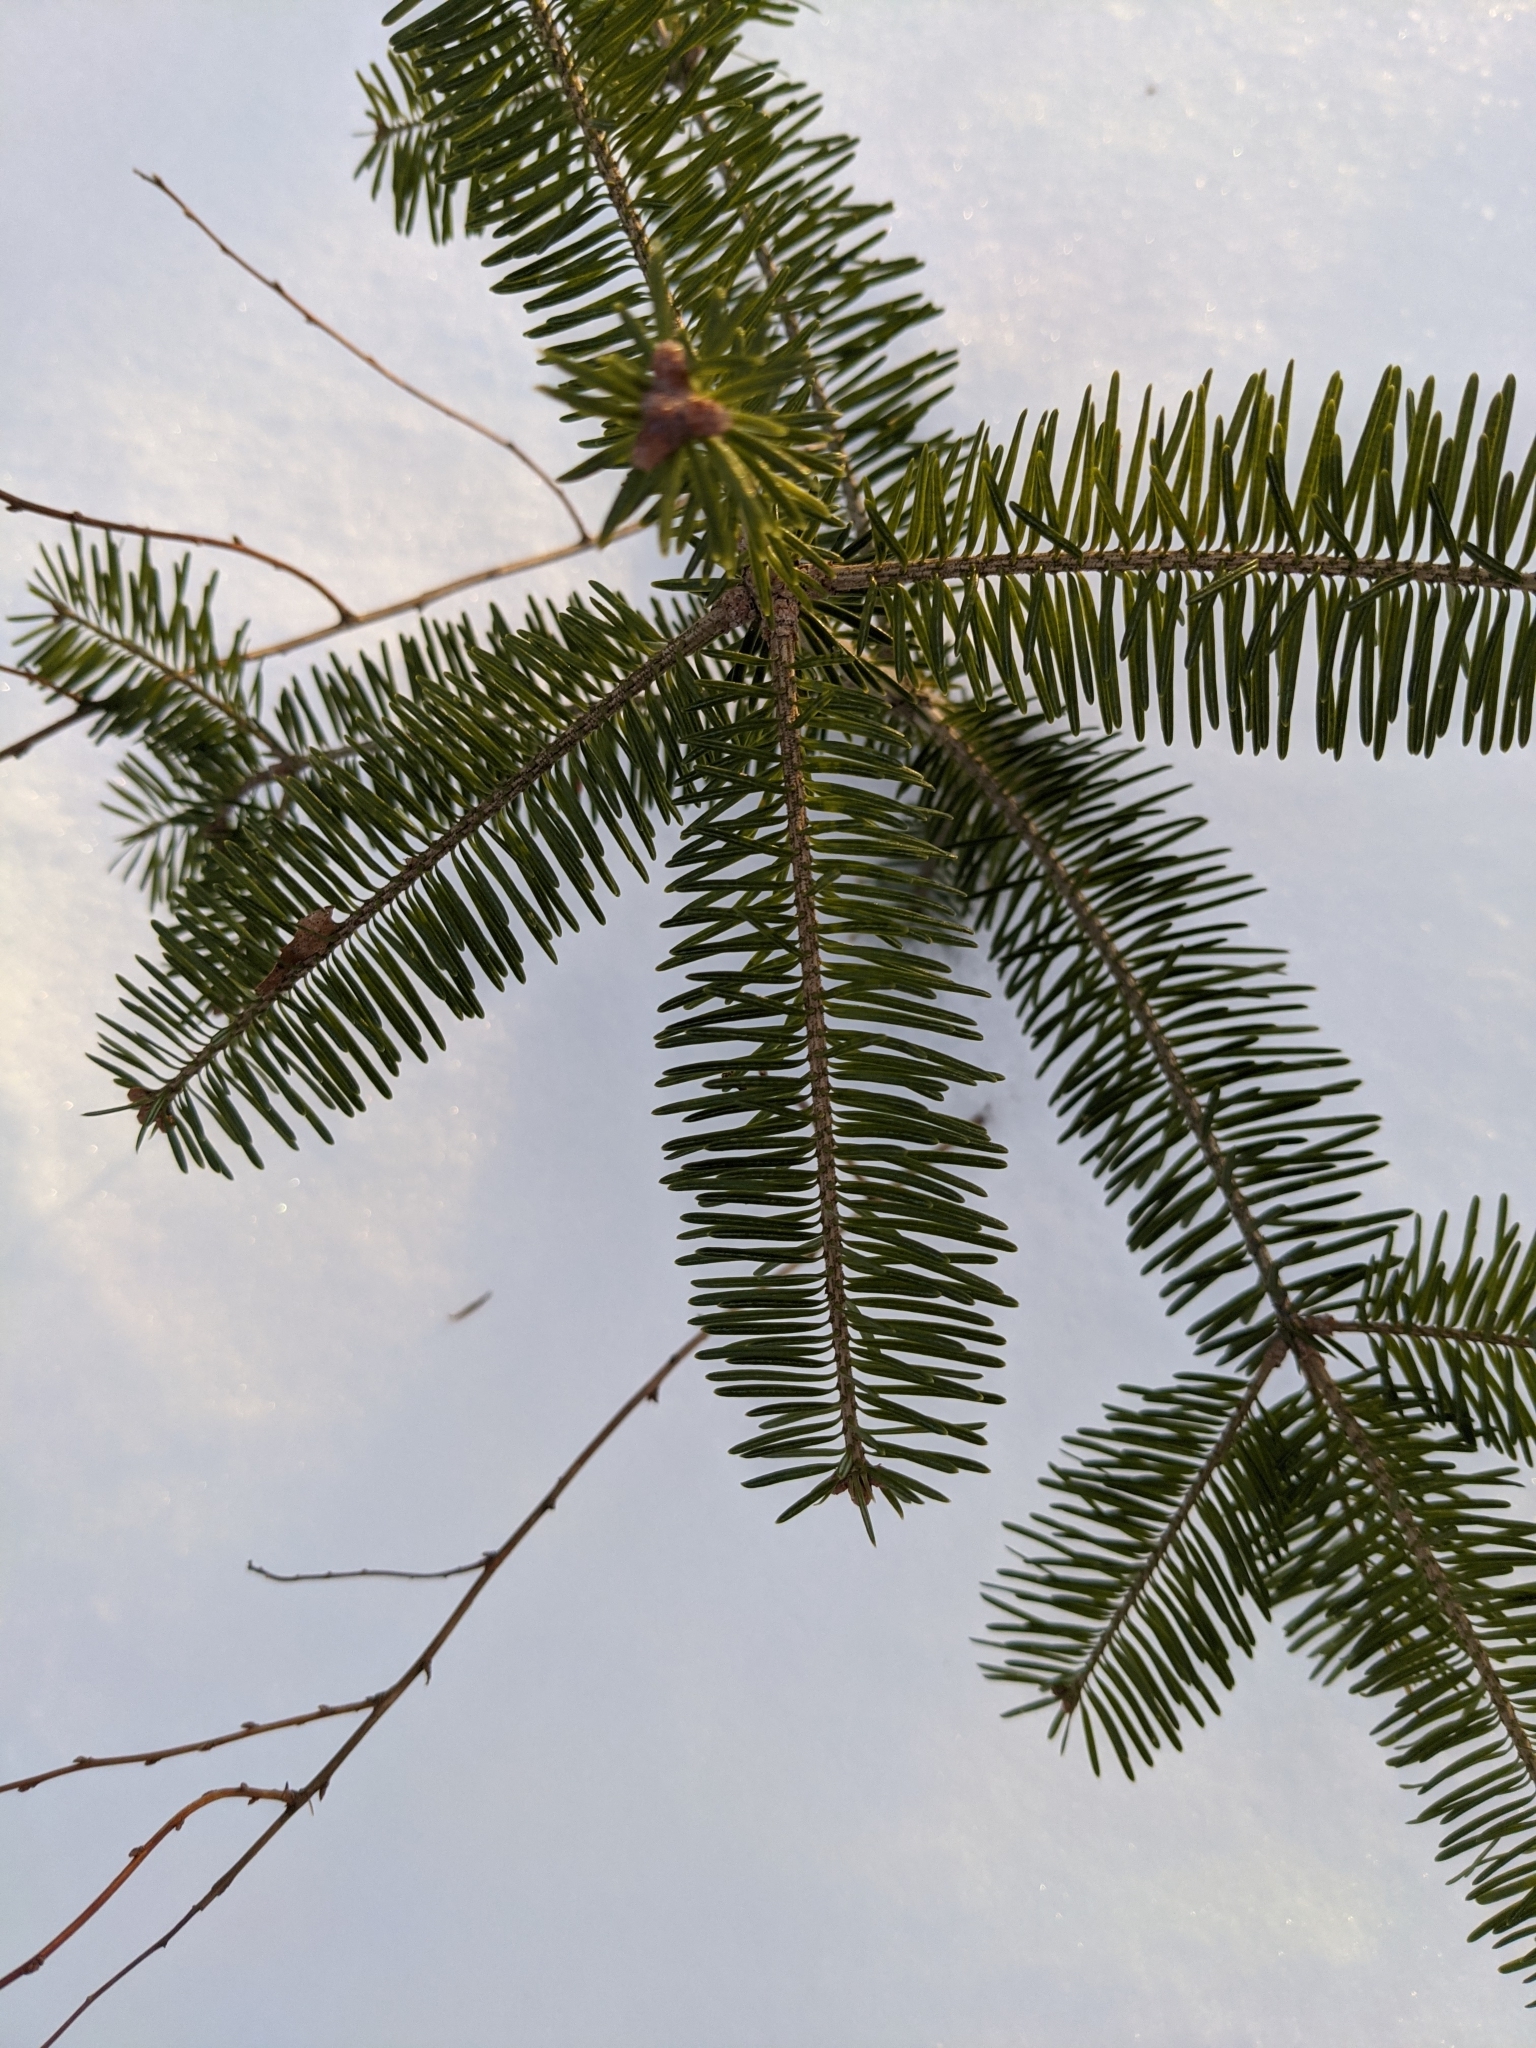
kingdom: Plantae
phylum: Tracheophyta
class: Pinopsida
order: Pinales
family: Pinaceae
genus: Abies
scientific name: Abies balsamea
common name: Balsam fir
